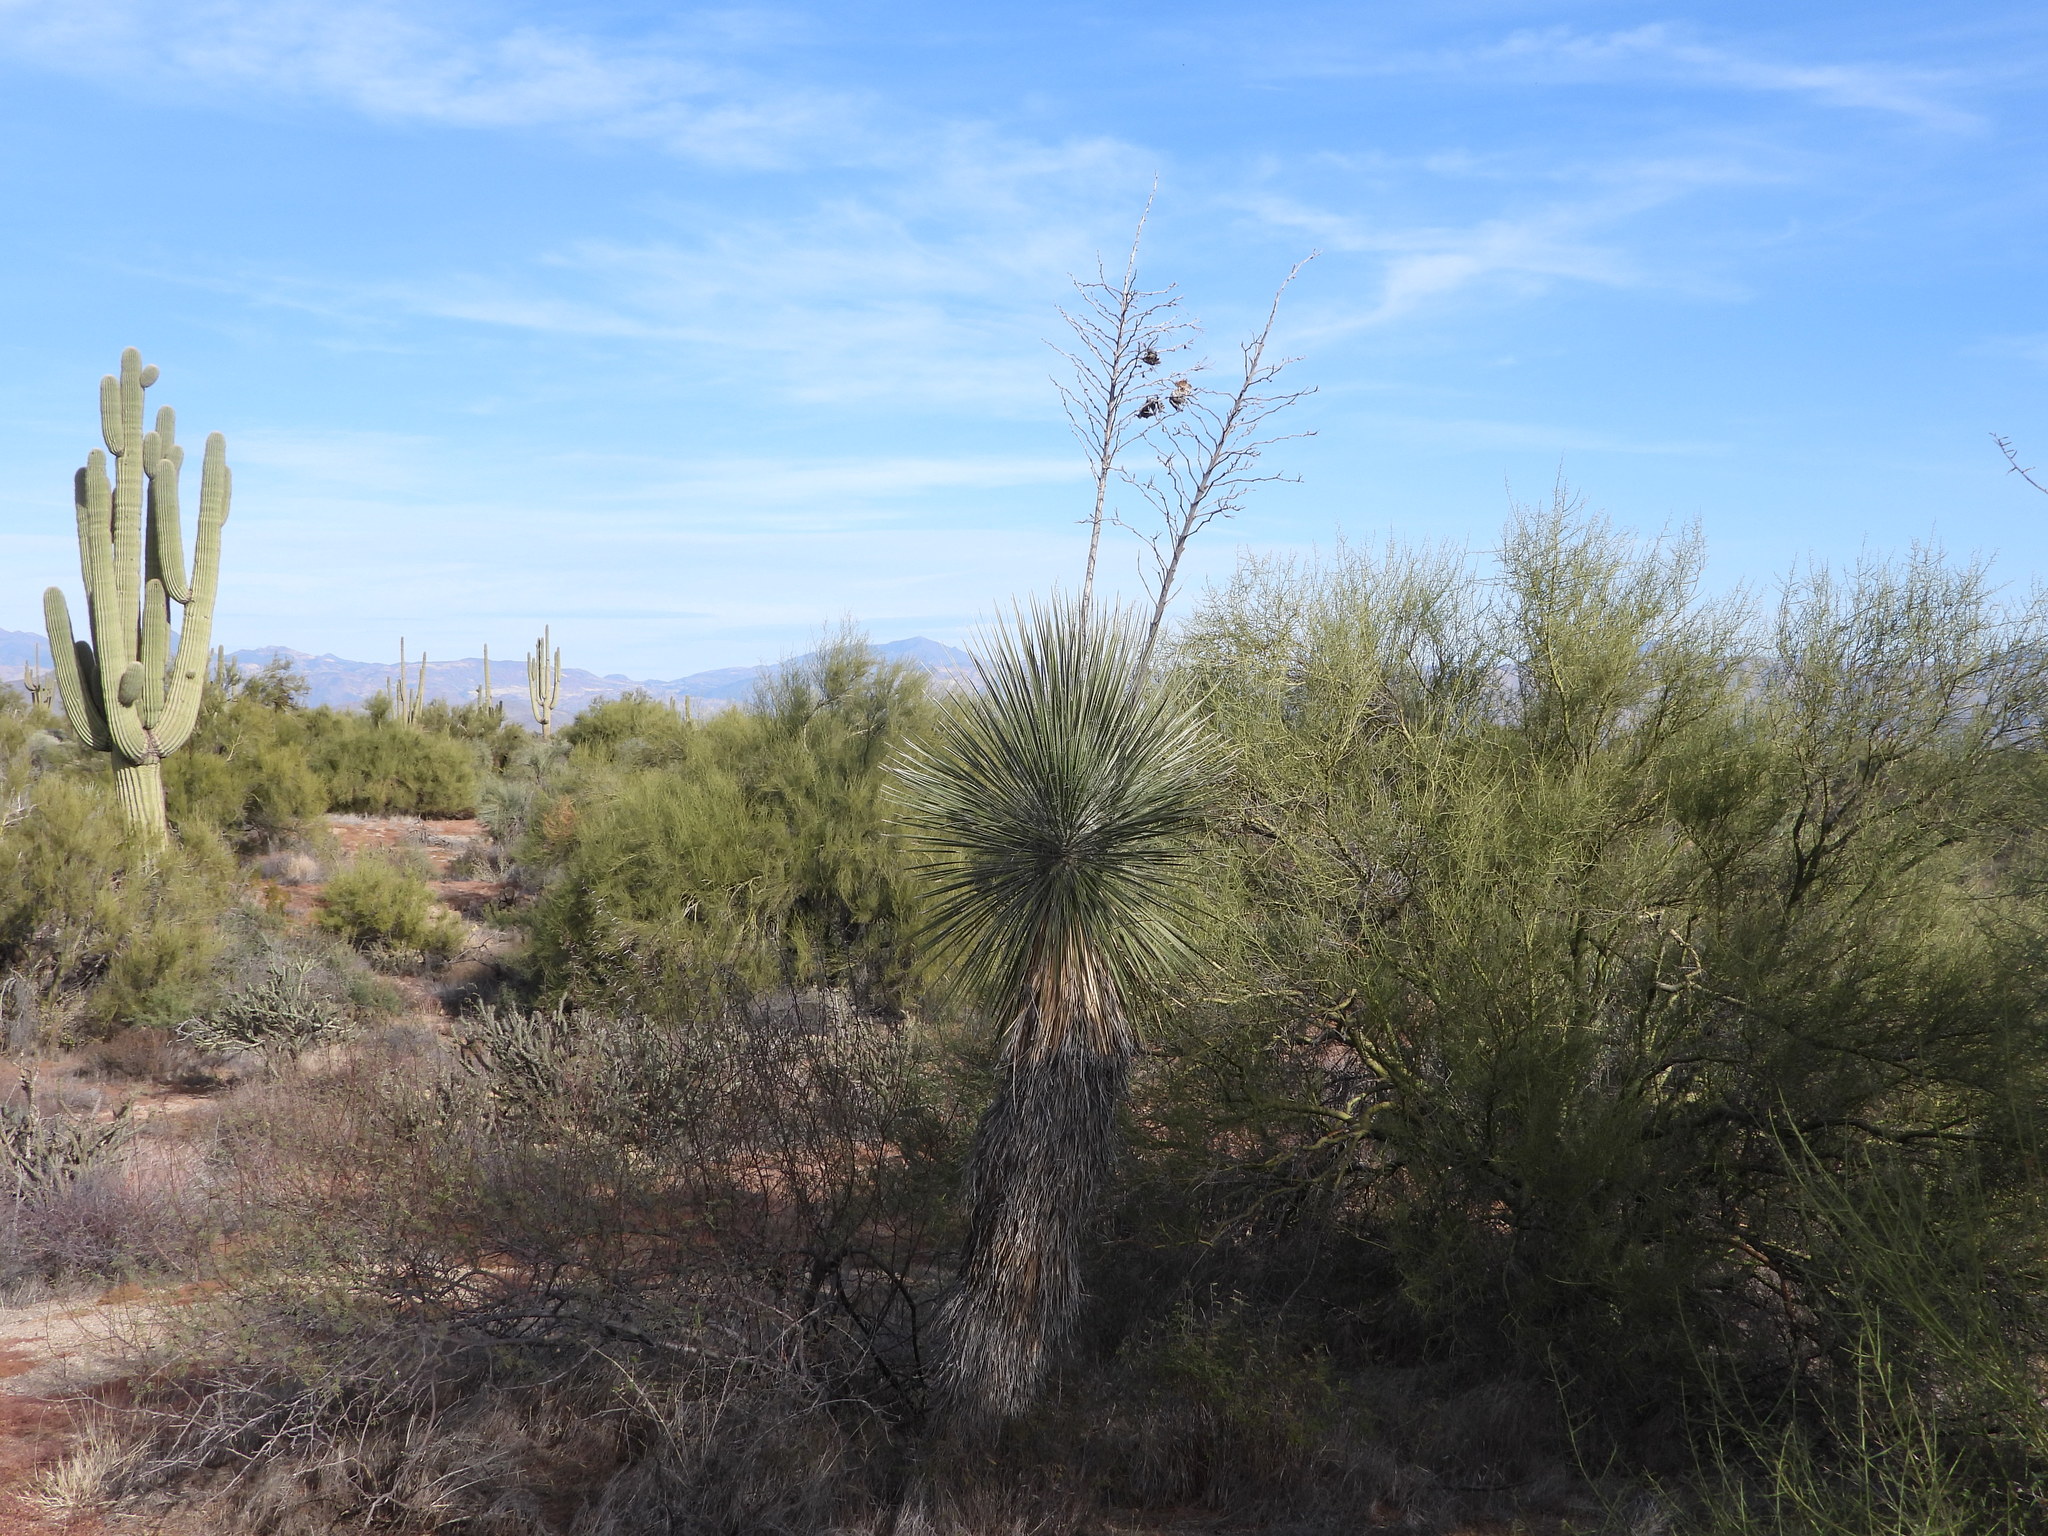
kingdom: Plantae
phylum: Tracheophyta
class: Liliopsida
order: Asparagales
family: Asparagaceae
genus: Yucca
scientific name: Yucca elata
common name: Palmella
